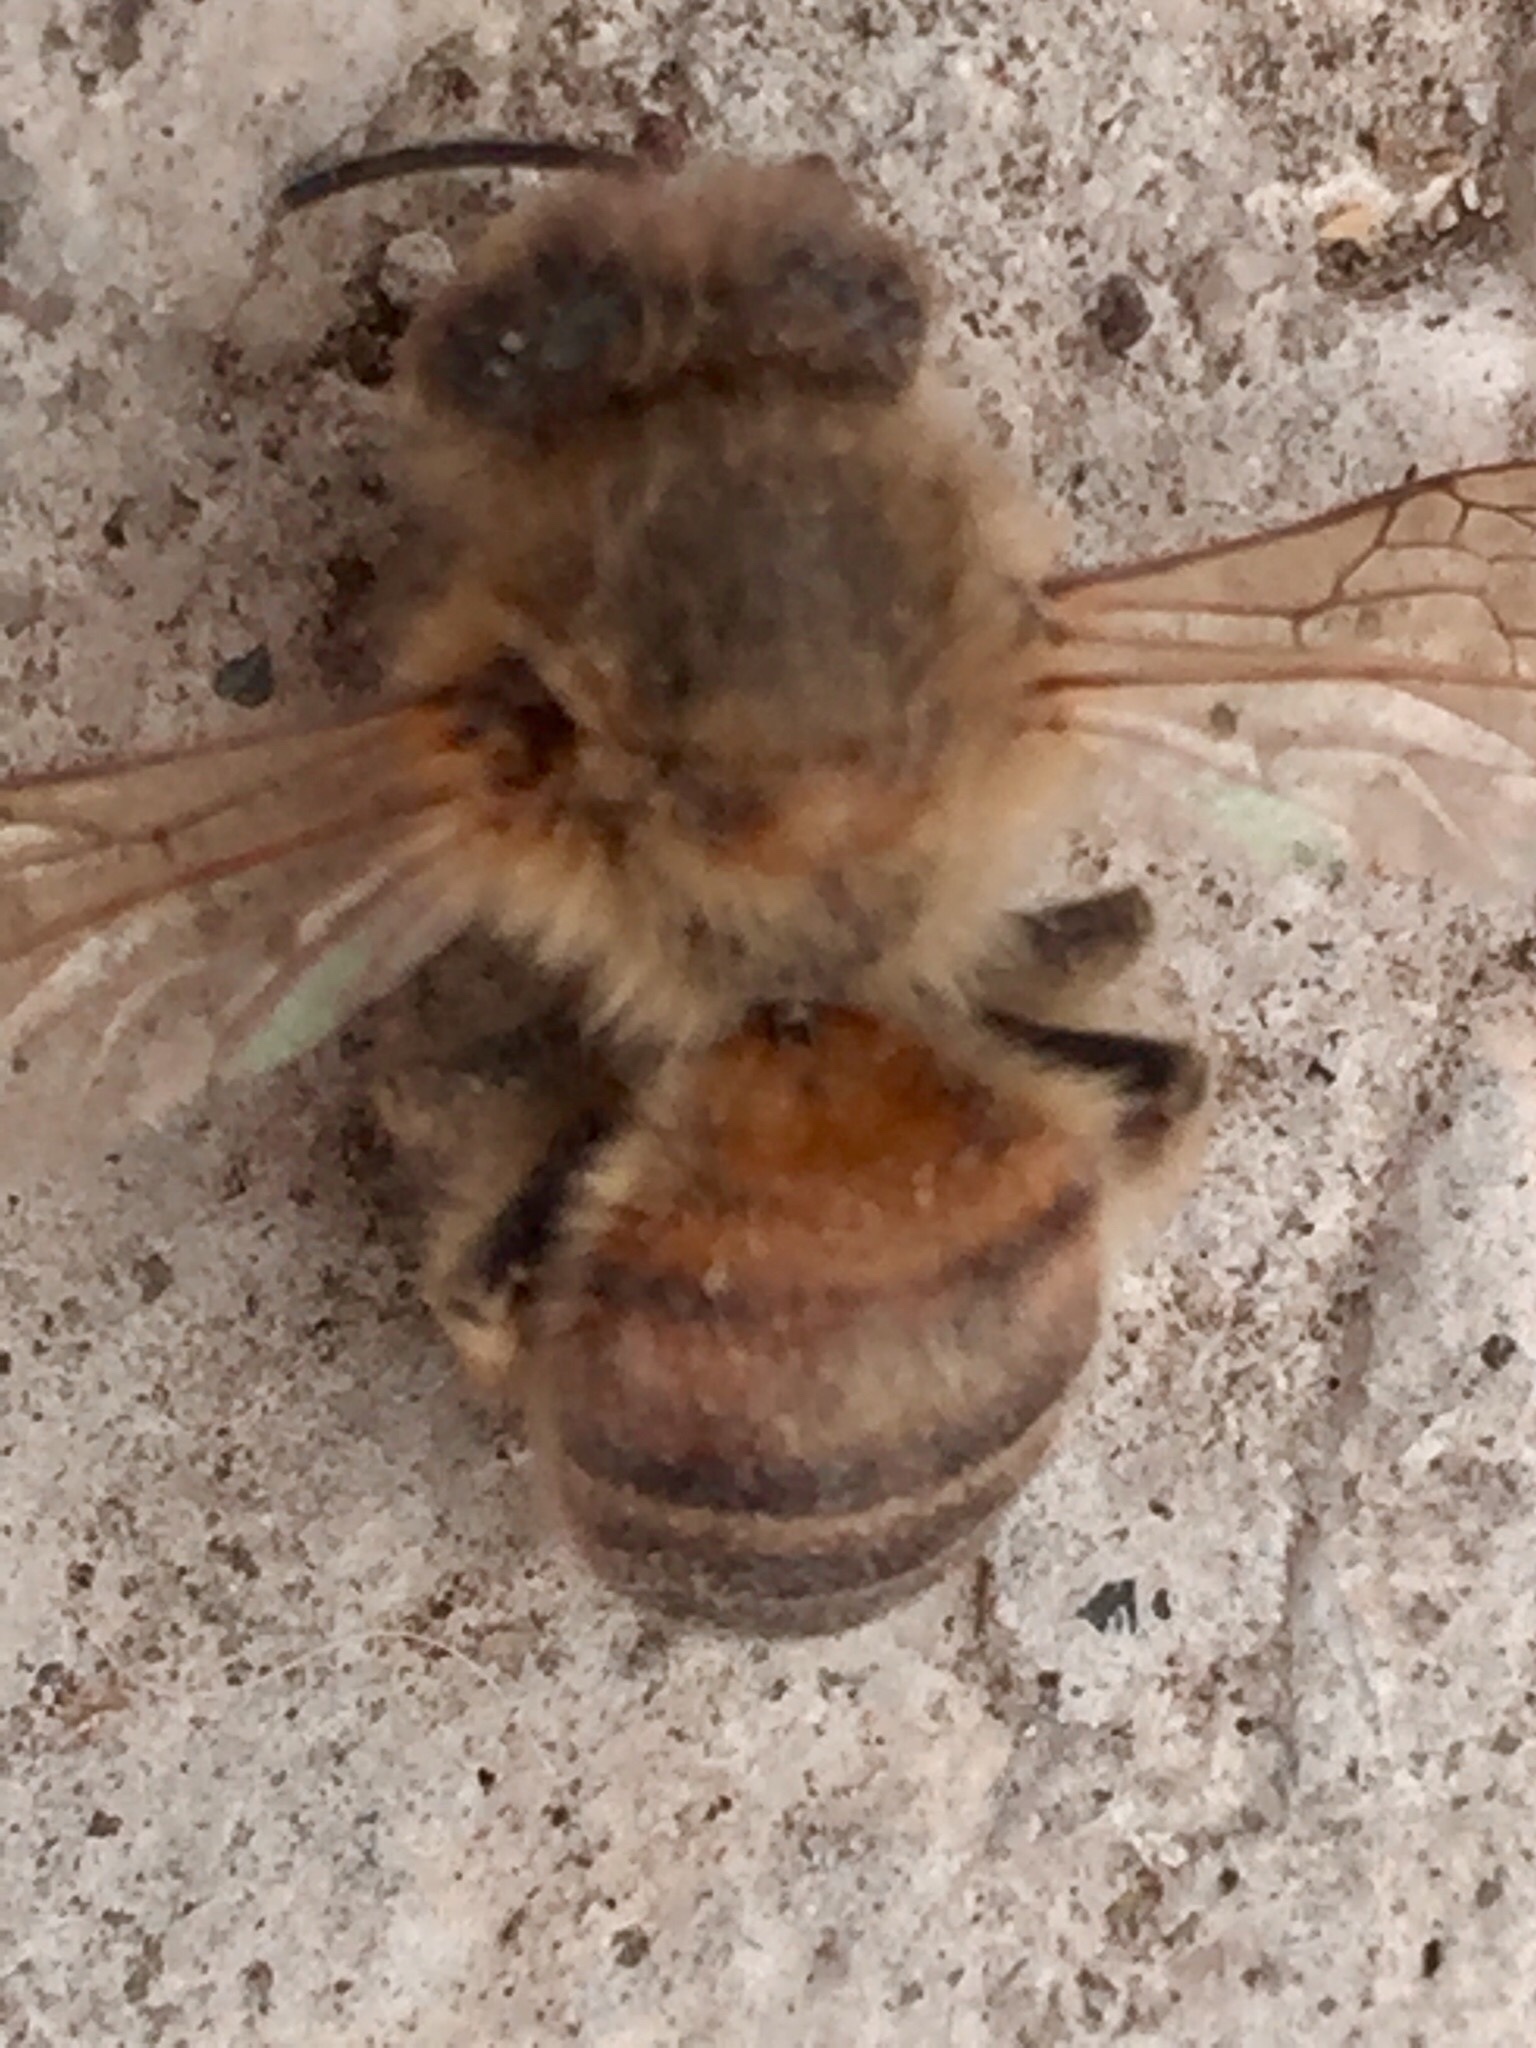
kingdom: Animalia
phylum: Arthropoda
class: Insecta
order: Hymenoptera
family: Apidae
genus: Apis
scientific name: Apis mellifera
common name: Honey bee
